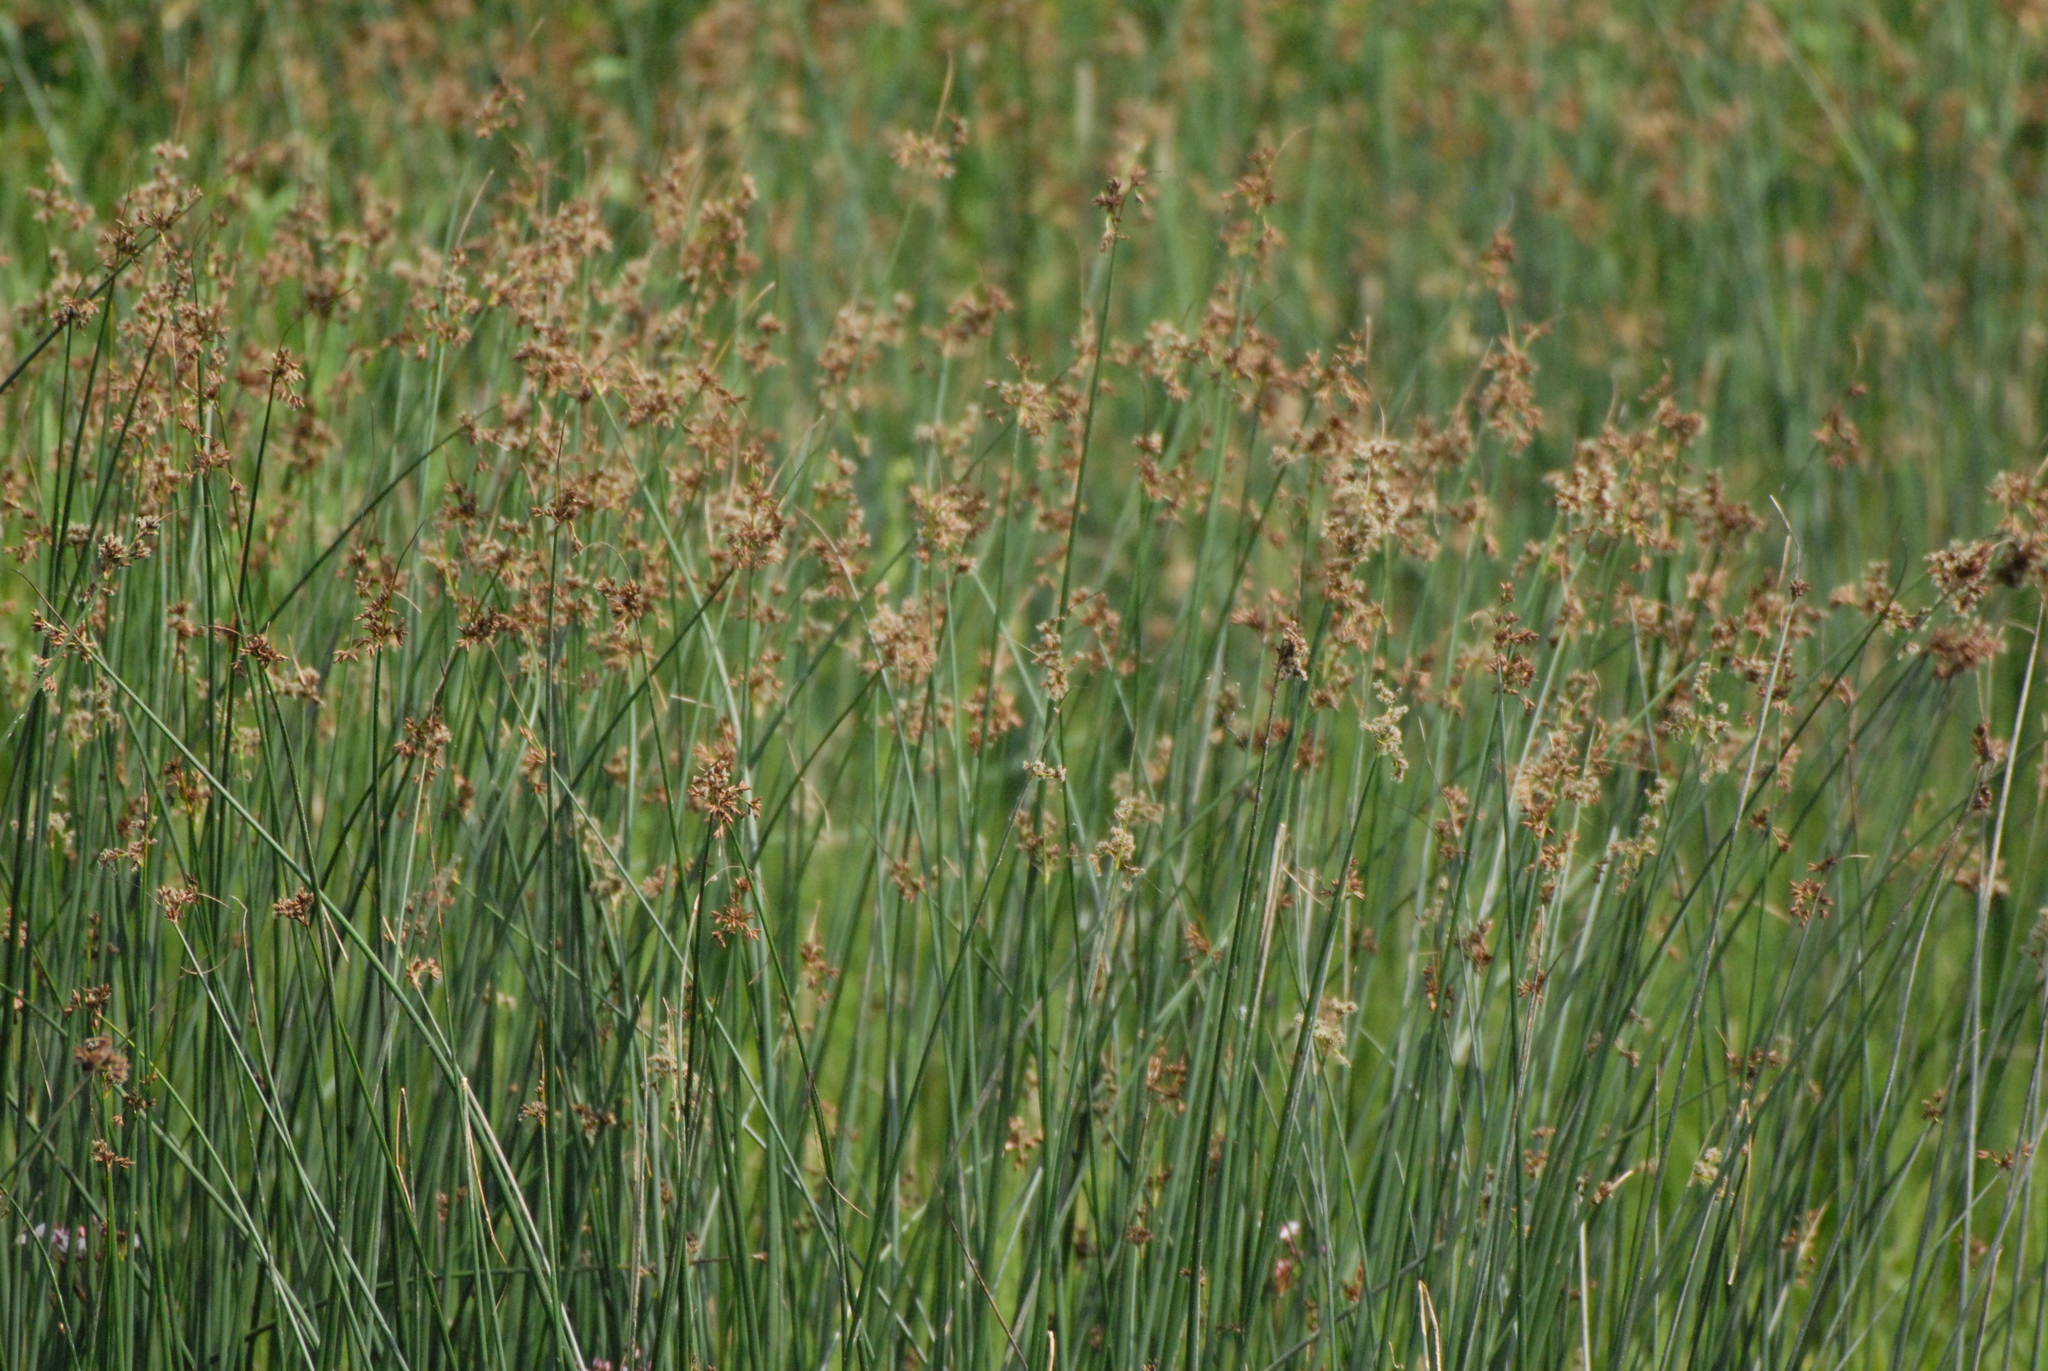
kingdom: Plantae
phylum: Tracheophyta
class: Liliopsida
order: Poales
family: Cyperaceae
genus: Schoenoplectus
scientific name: Schoenoplectus lacustris
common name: Common club-rush
